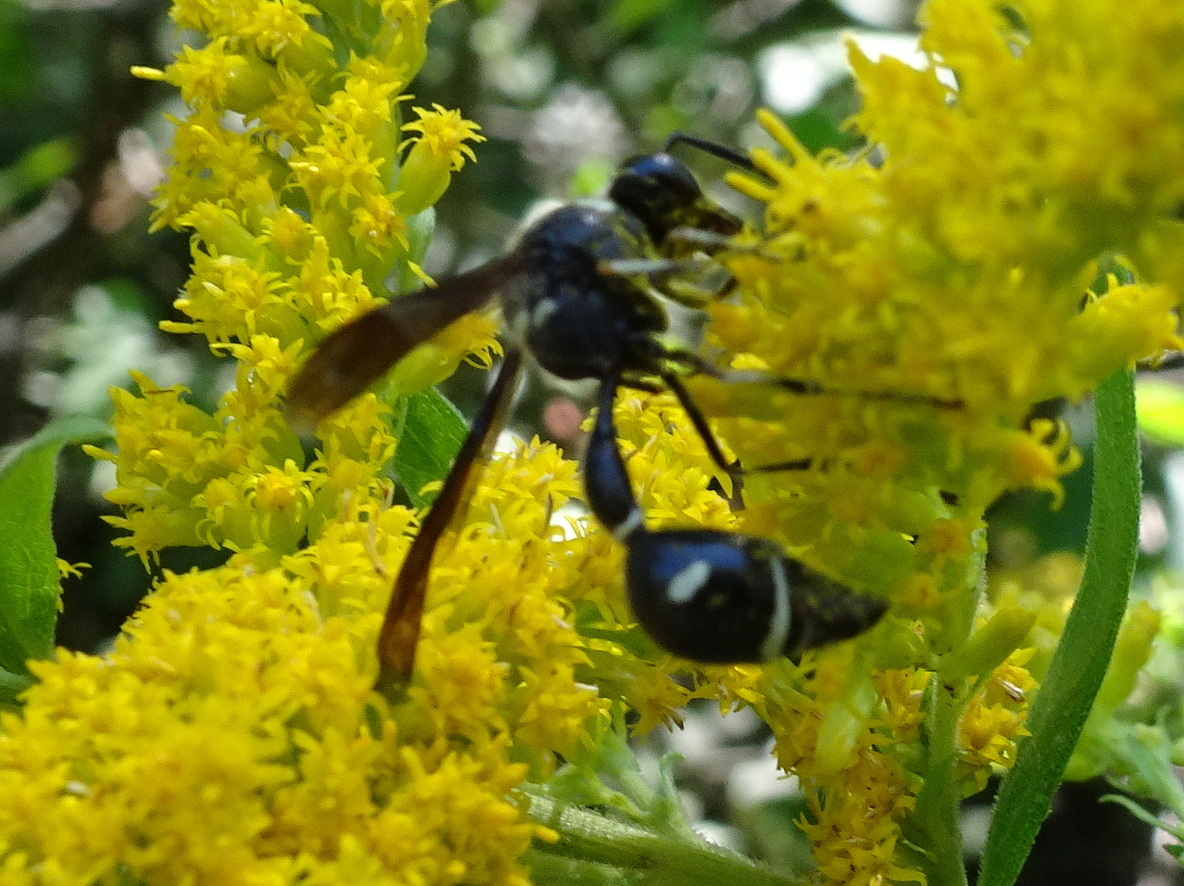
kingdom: Animalia
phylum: Arthropoda
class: Insecta
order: Hymenoptera
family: Vespidae
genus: Eumenes
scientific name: Eumenes fraternus
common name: Fraternal potter wasp
